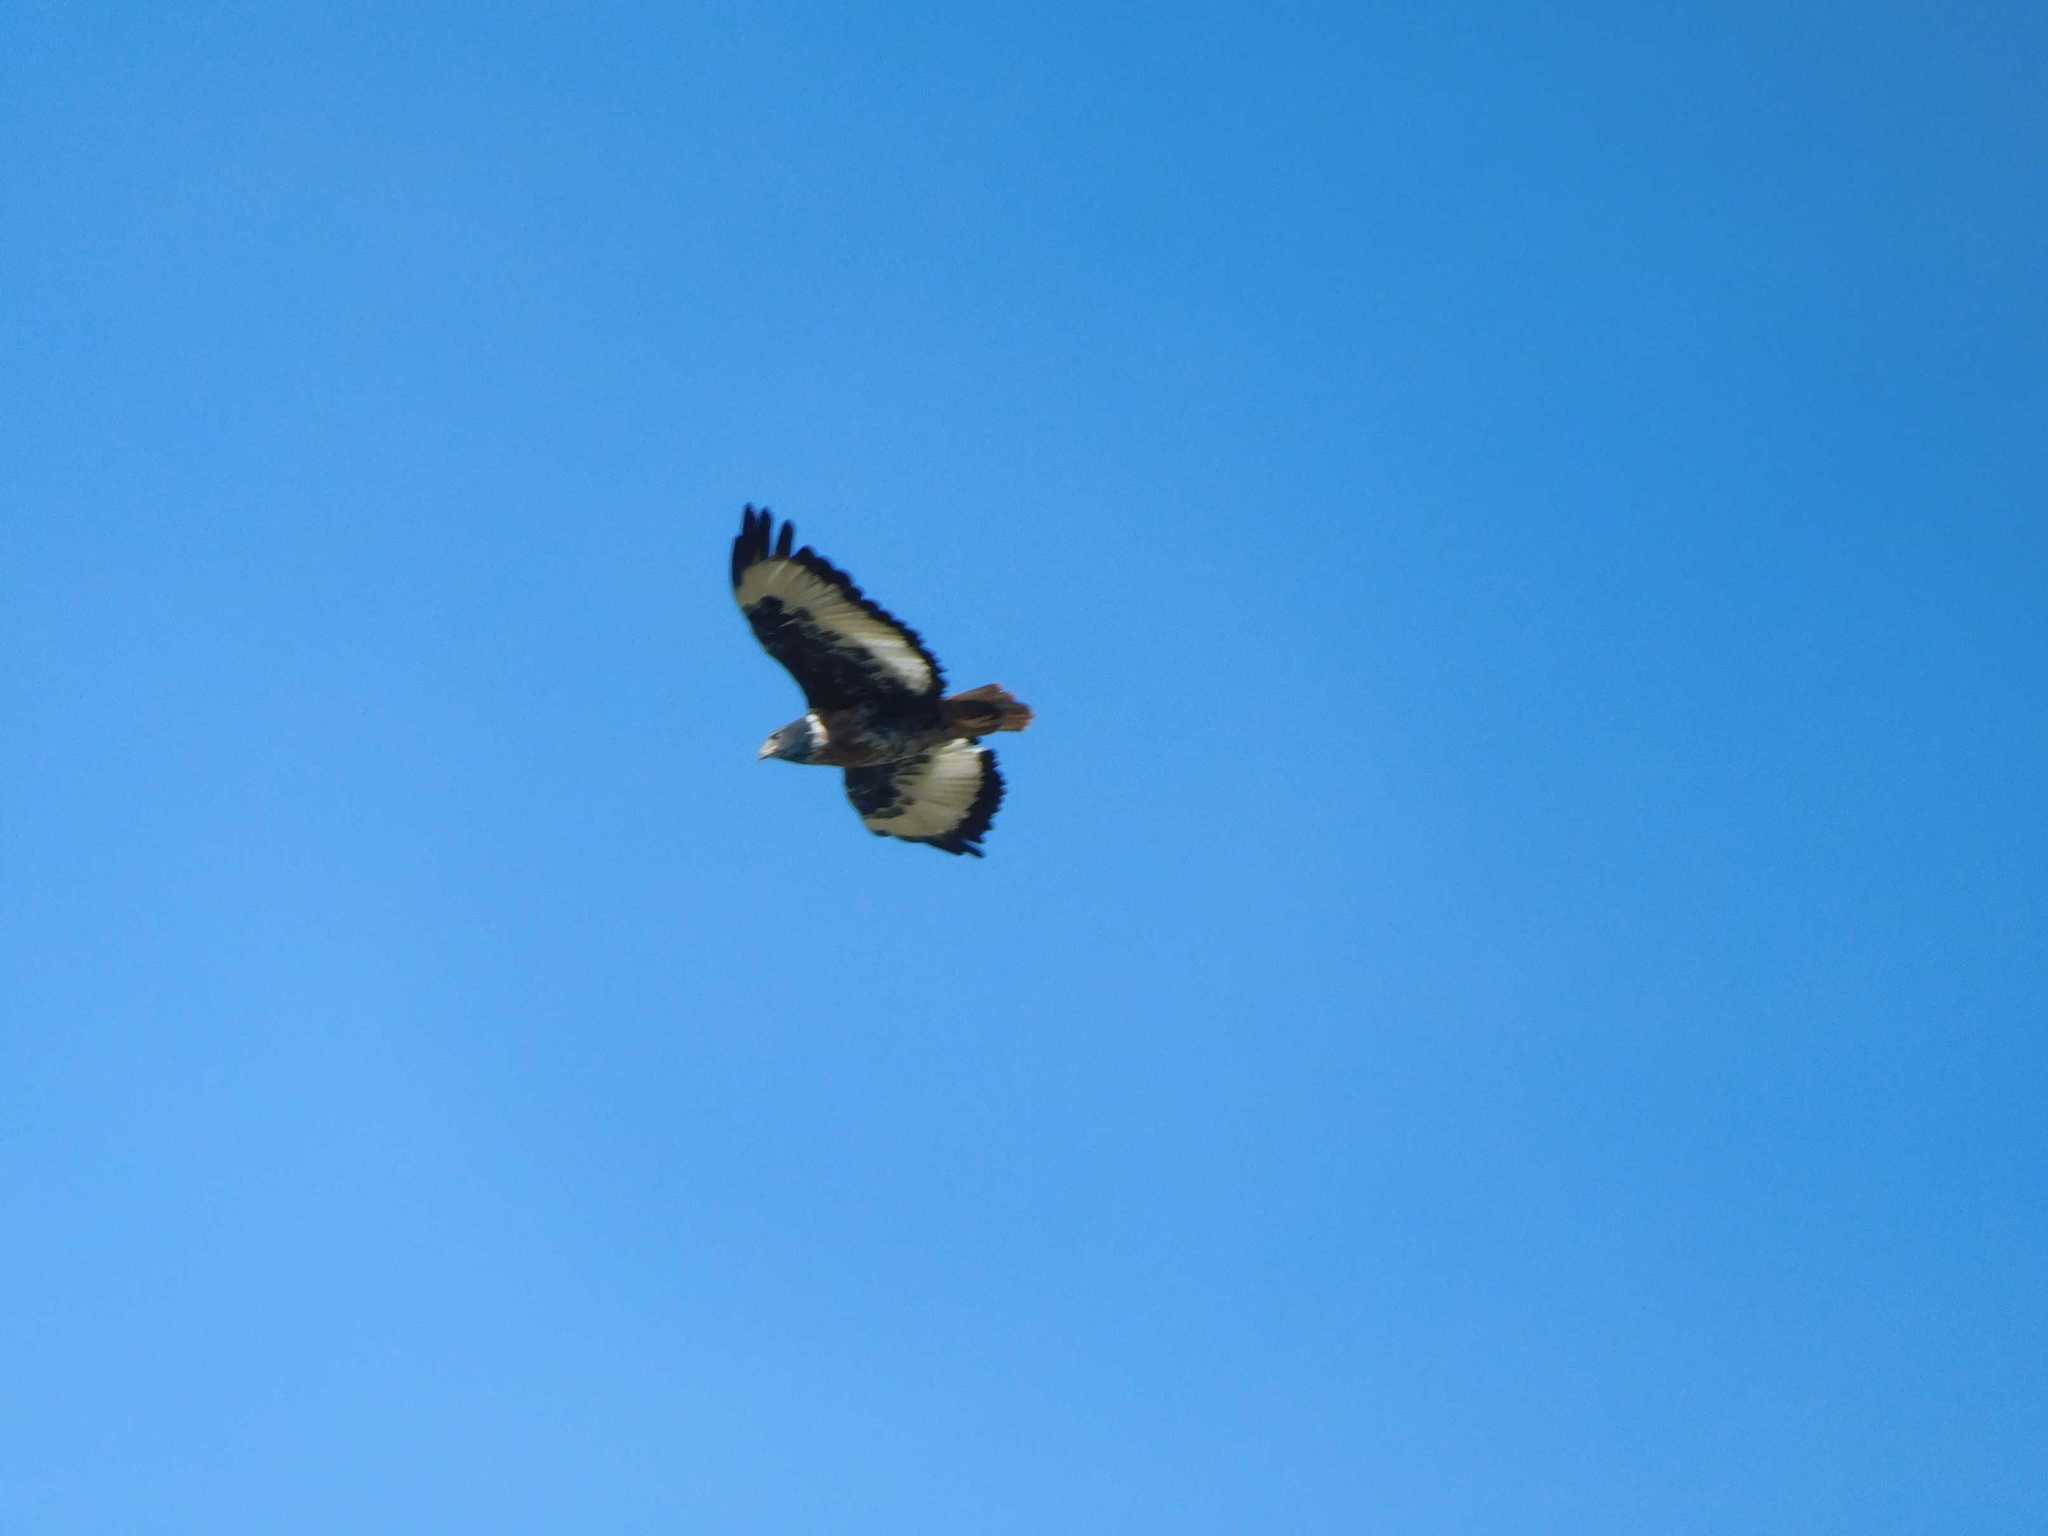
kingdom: Animalia
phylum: Chordata
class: Aves
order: Accipitriformes
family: Accipitridae
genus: Buteo
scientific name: Buteo rufofuscus
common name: Jackal buzzard
